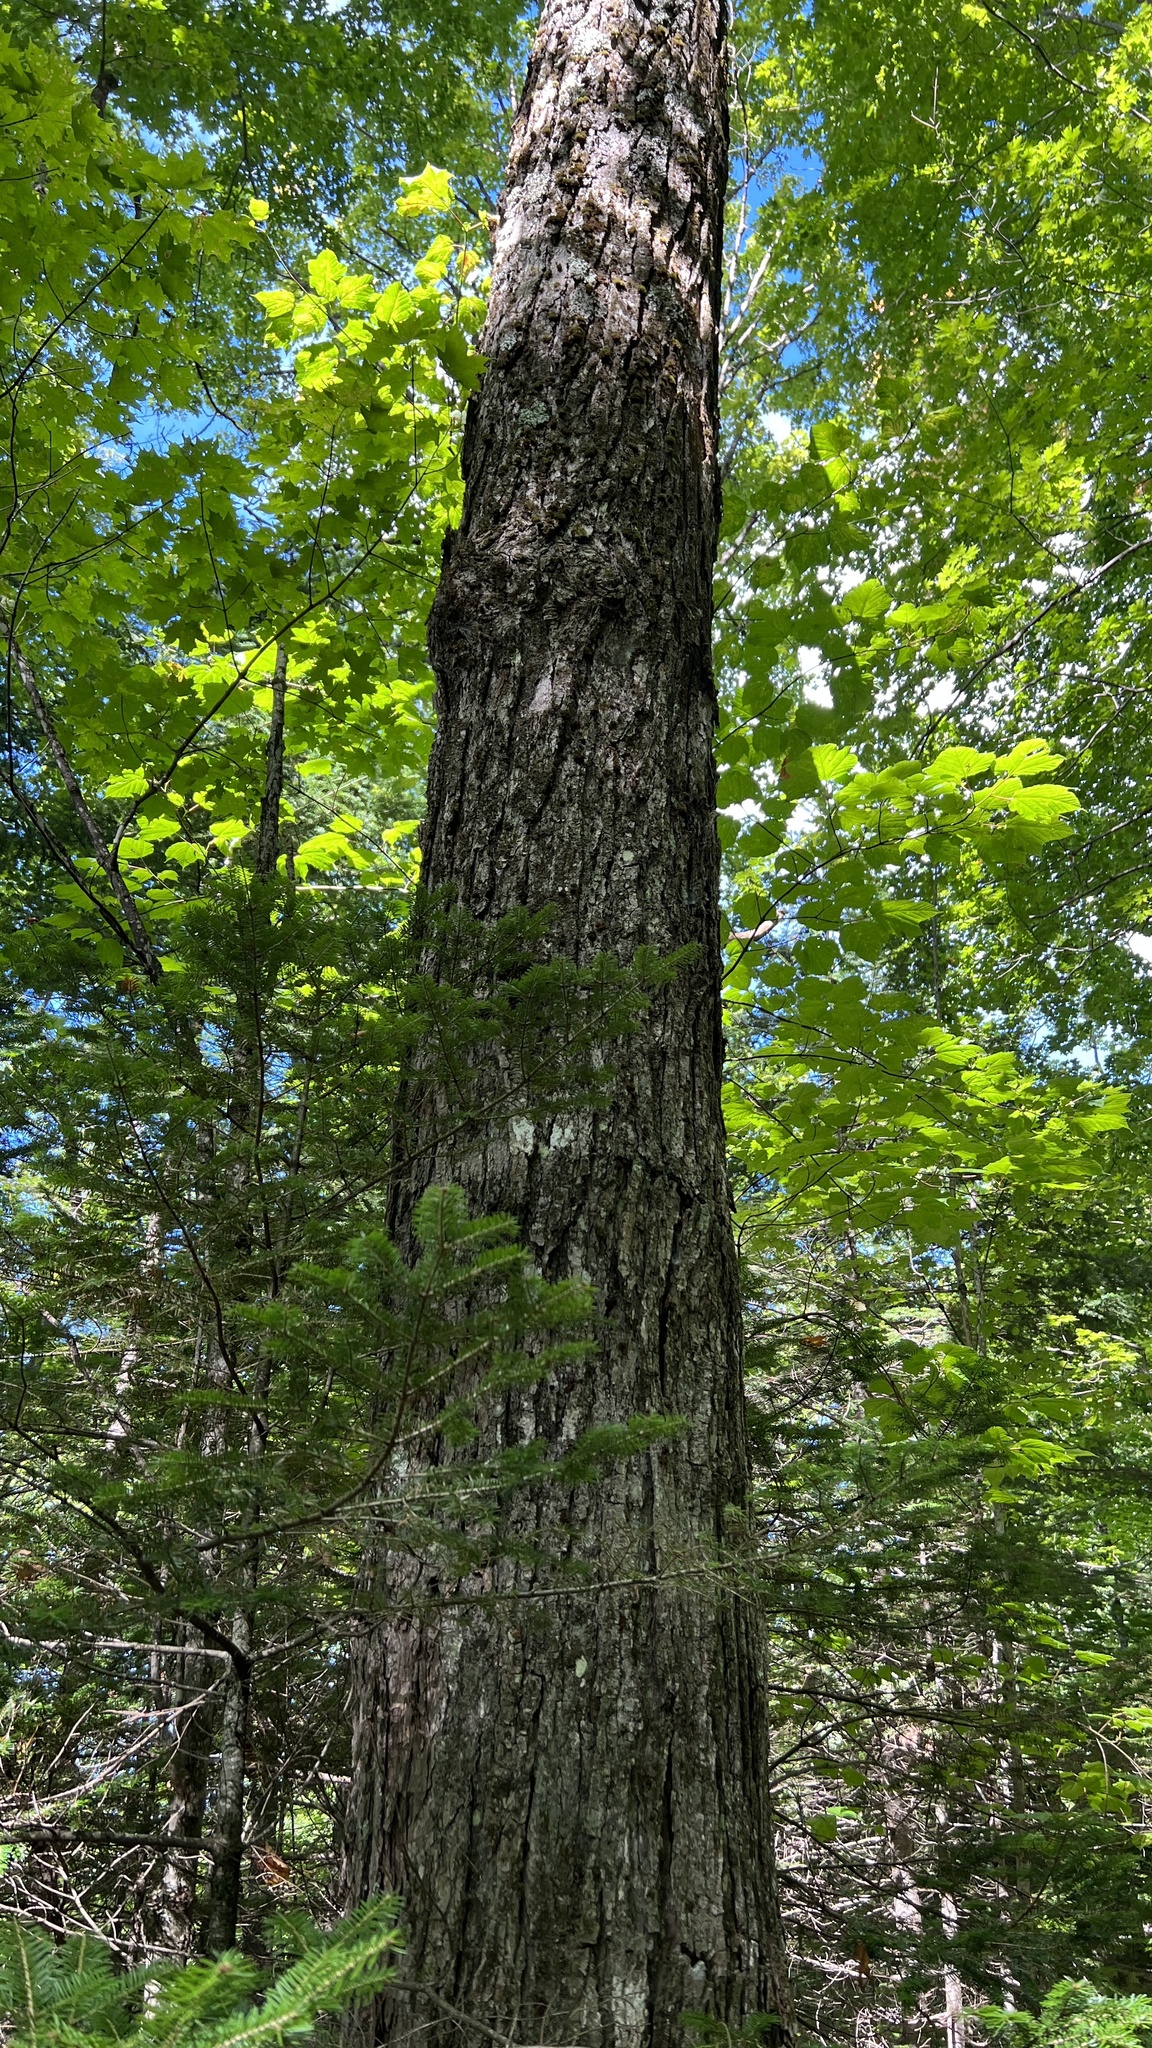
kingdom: Plantae
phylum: Tracheophyta
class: Magnoliopsida
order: Sapindales
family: Sapindaceae
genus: Acer
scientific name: Acer saccharum
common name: Sugar maple
